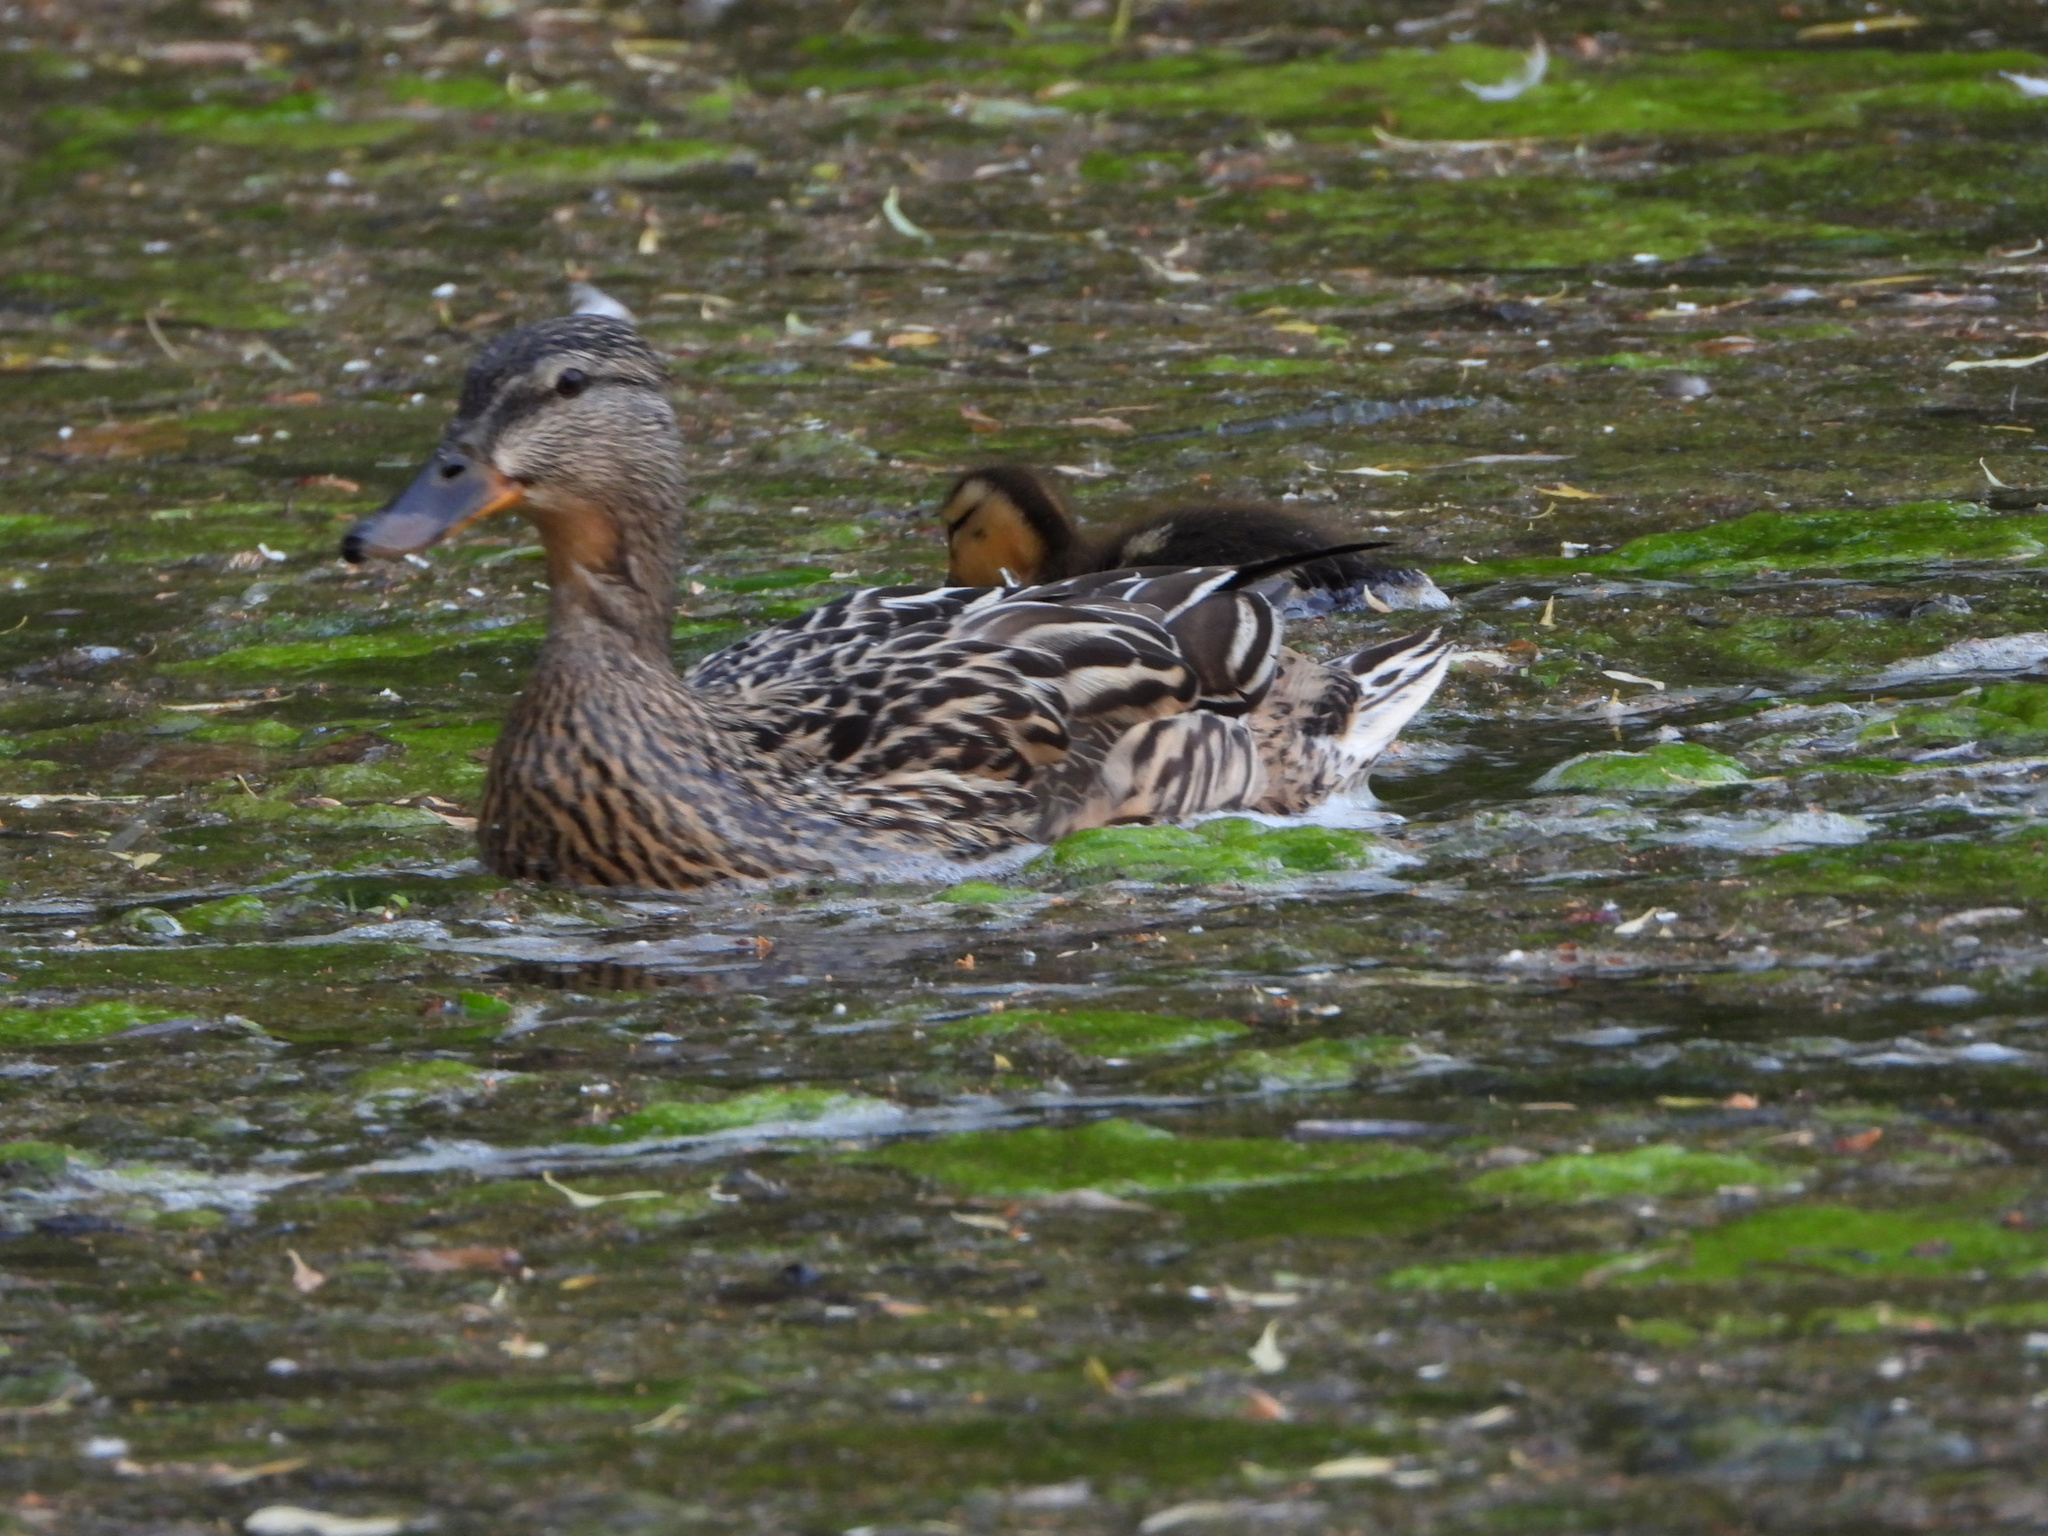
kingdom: Animalia
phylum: Chordata
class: Aves
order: Anseriformes
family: Anatidae
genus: Anas
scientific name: Anas platyrhynchos
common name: Mallard
